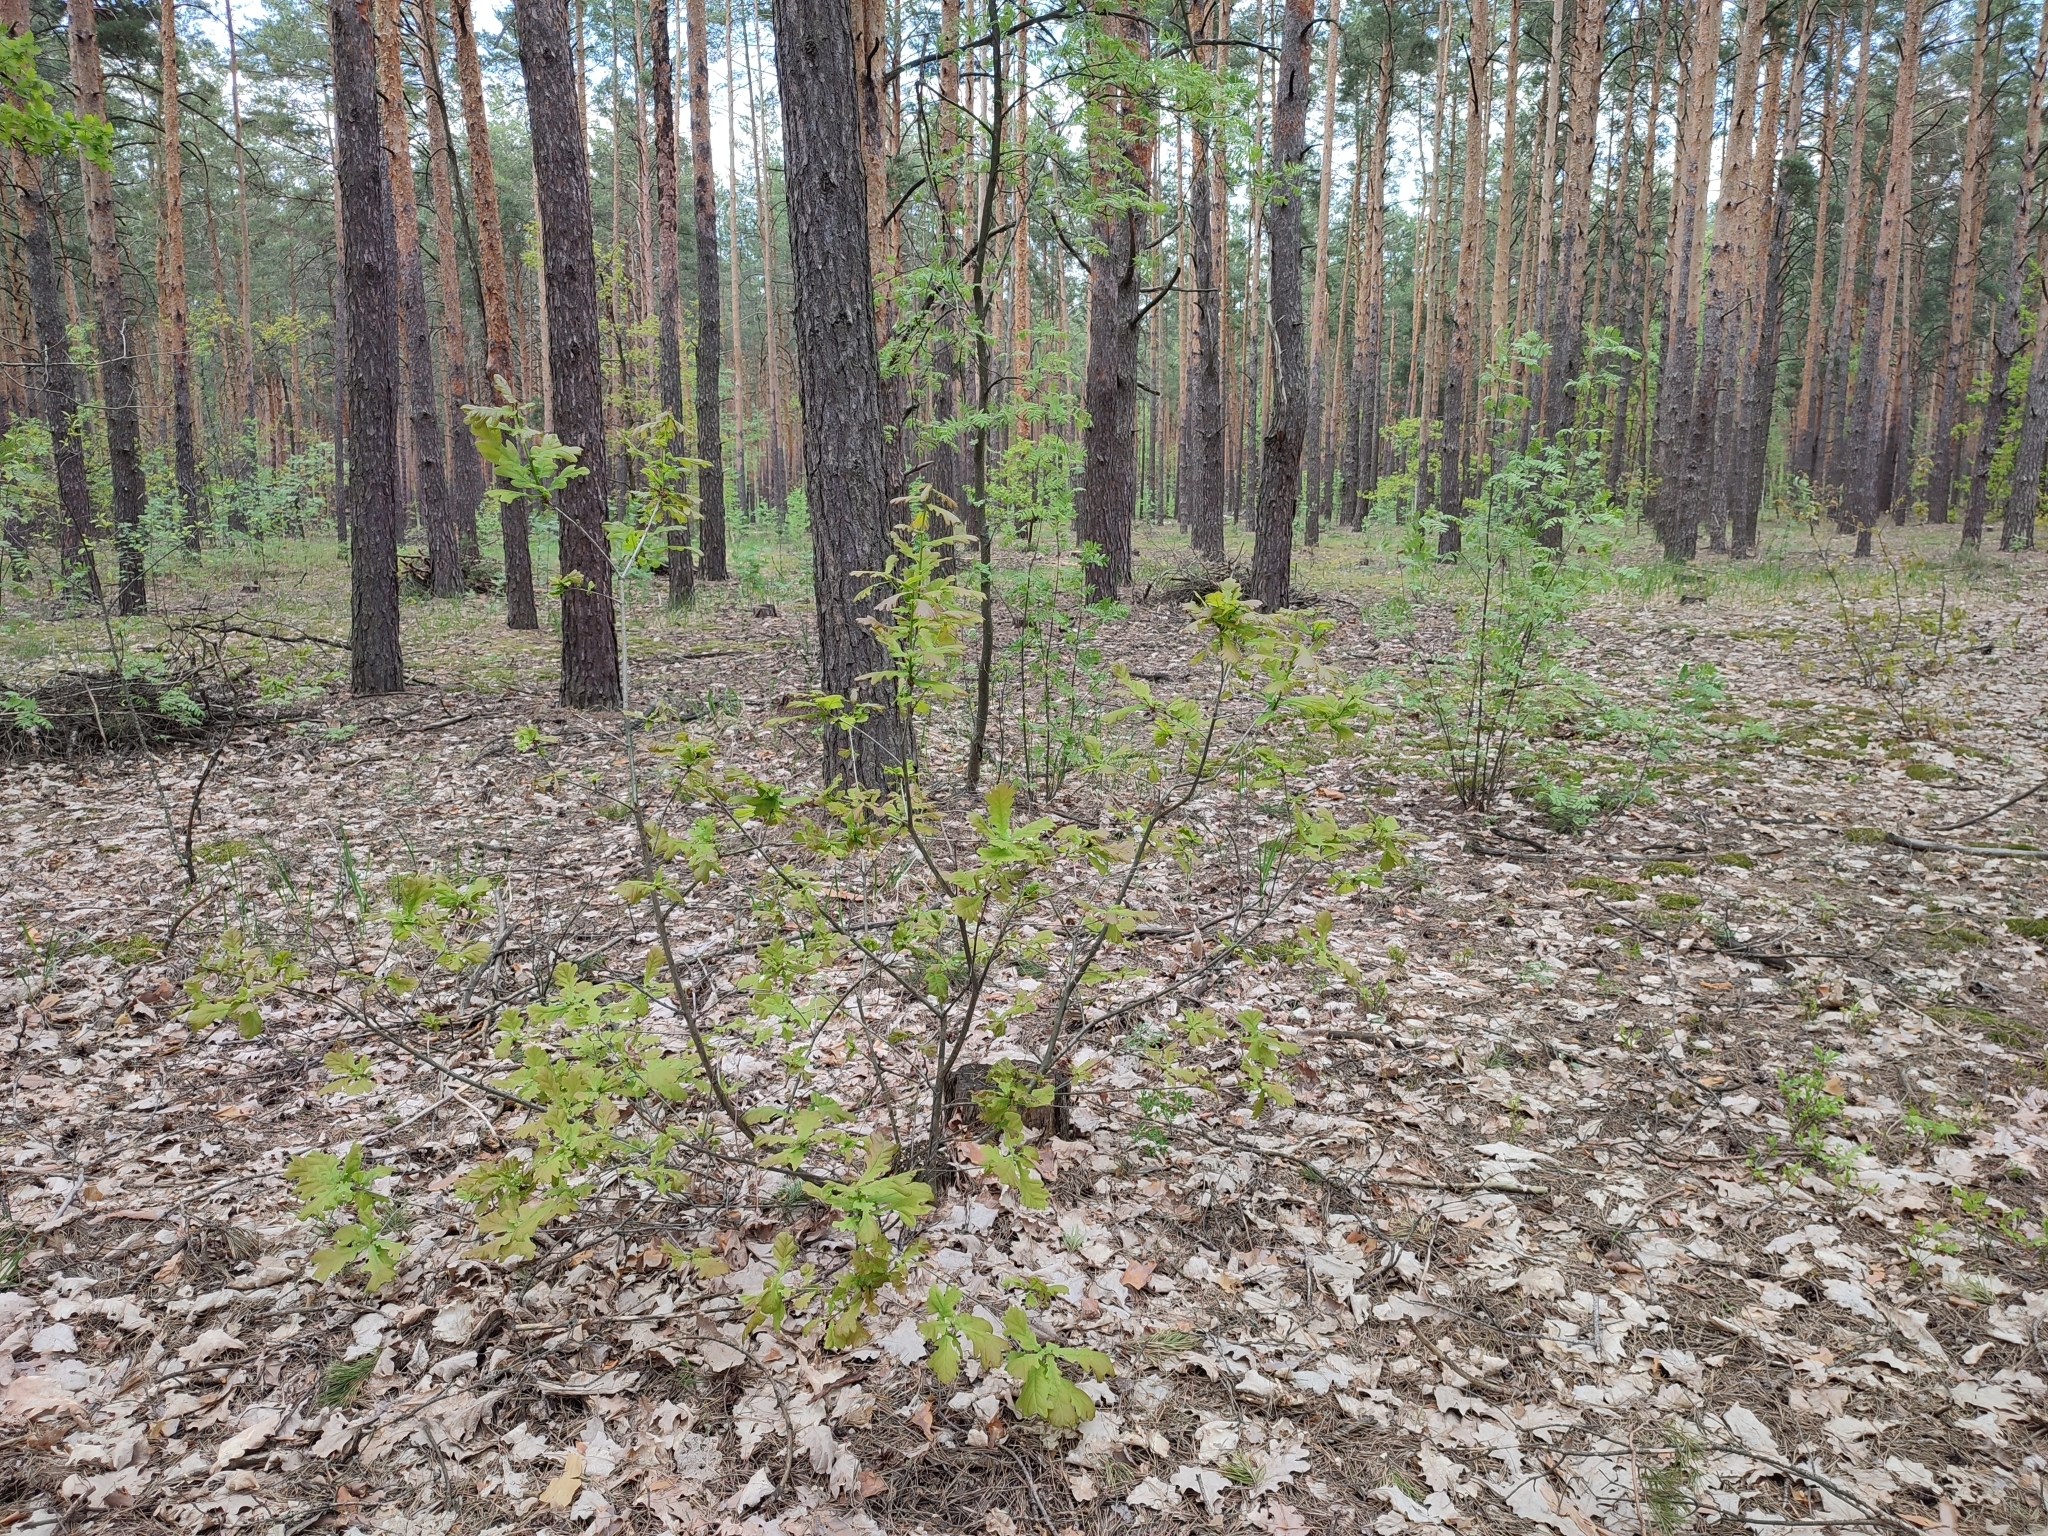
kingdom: Plantae
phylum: Tracheophyta
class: Magnoliopsida
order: Fagales
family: Fagaceae
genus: Quercus
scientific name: Quercus robur
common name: Pedunculate oak
